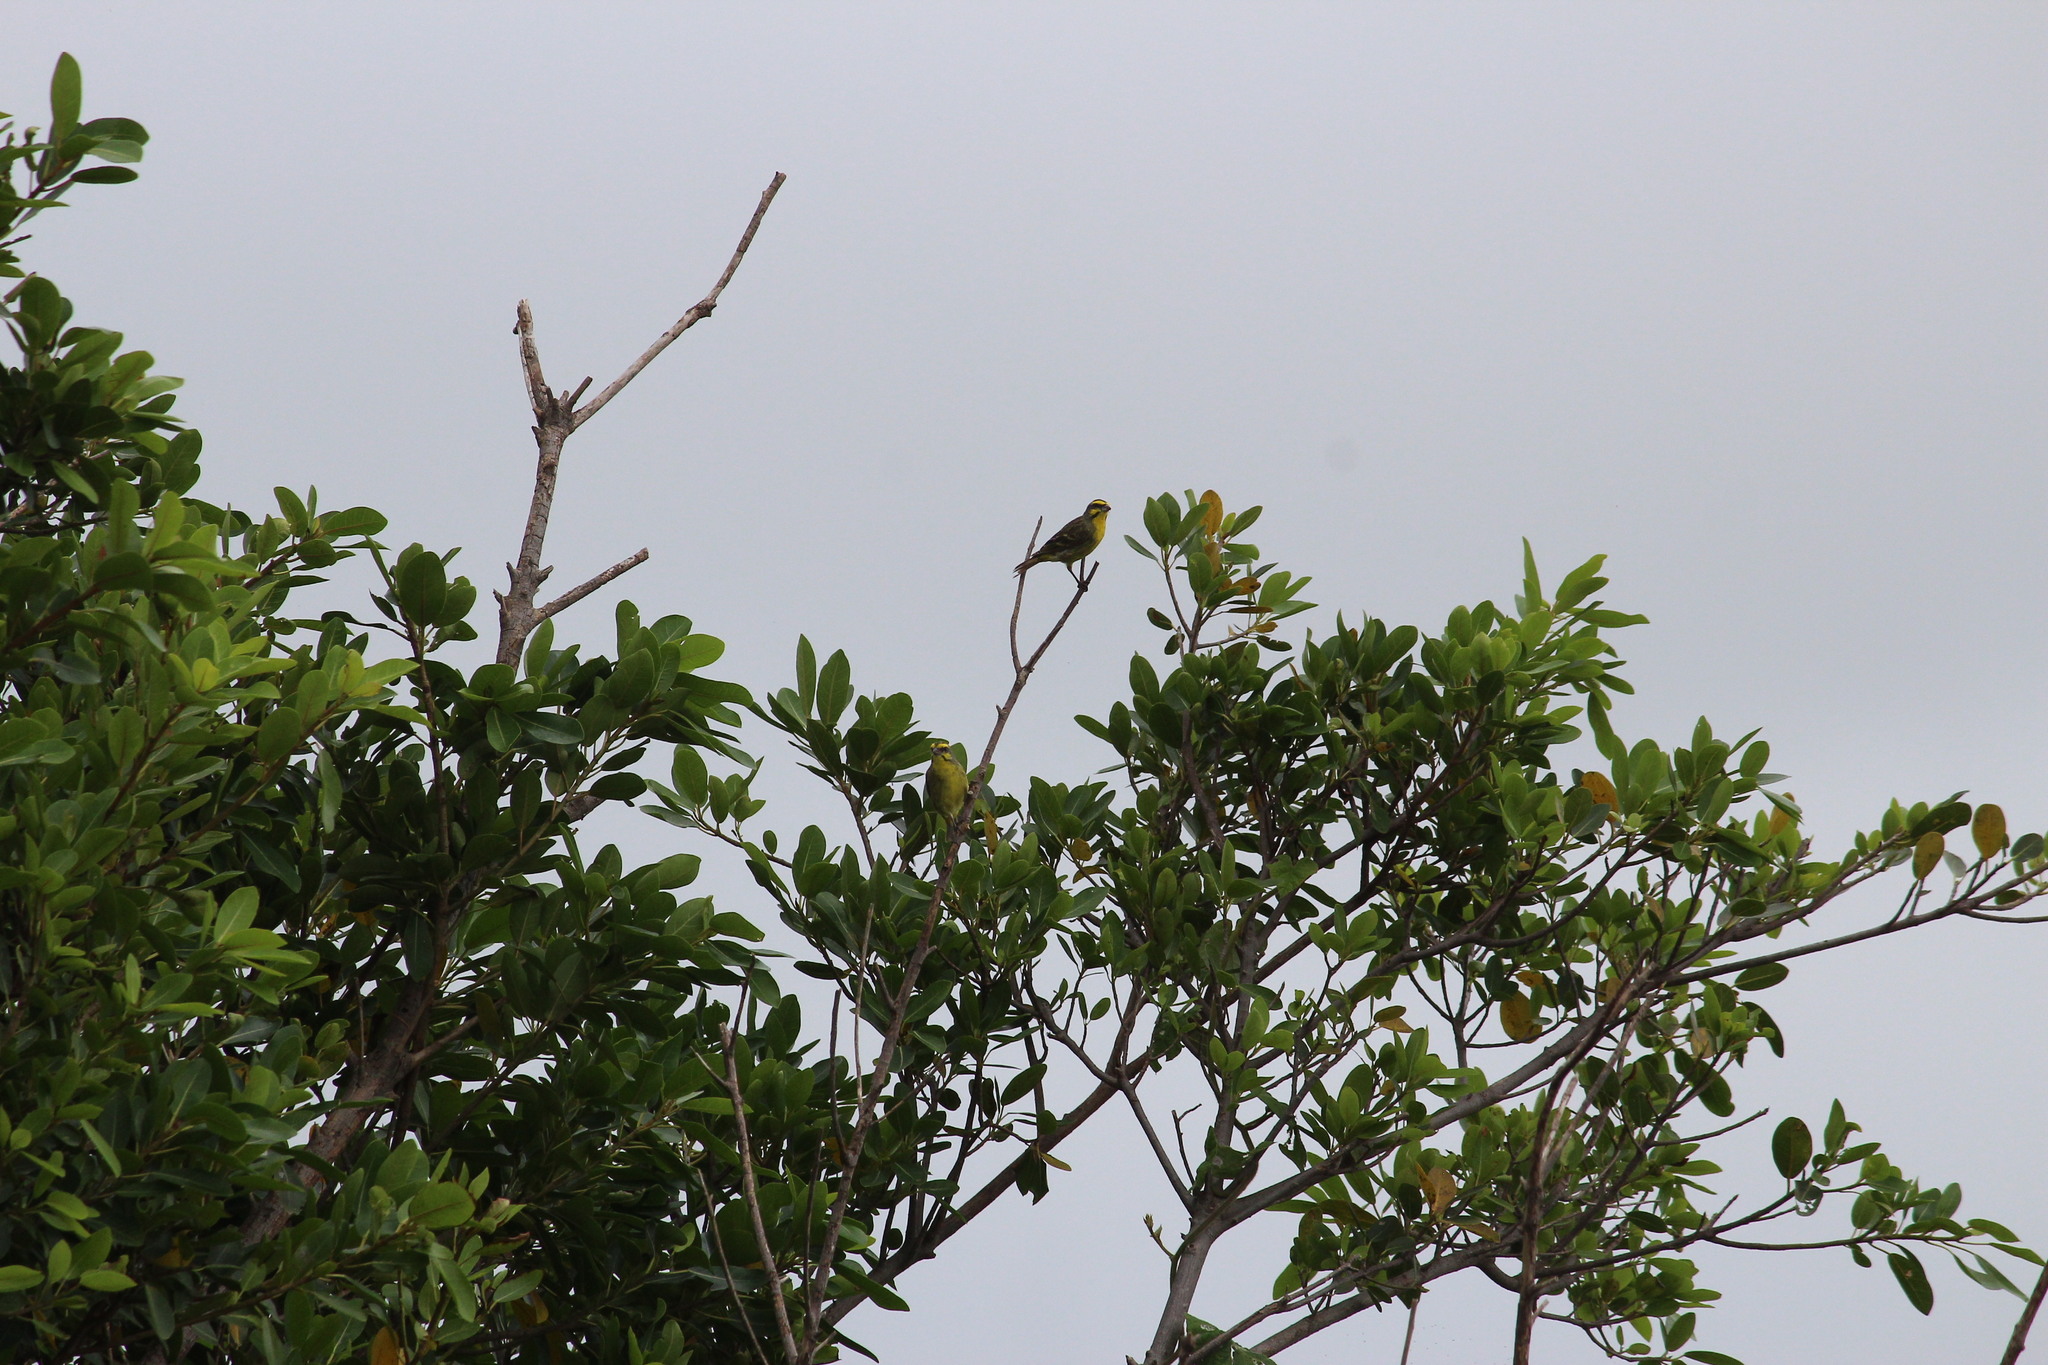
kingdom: Animalia
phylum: Chordata
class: Aves
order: Passeriformes
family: Fringillidae
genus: Crithagra
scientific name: Crithagra mozambica
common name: Yellow-fronted canary
